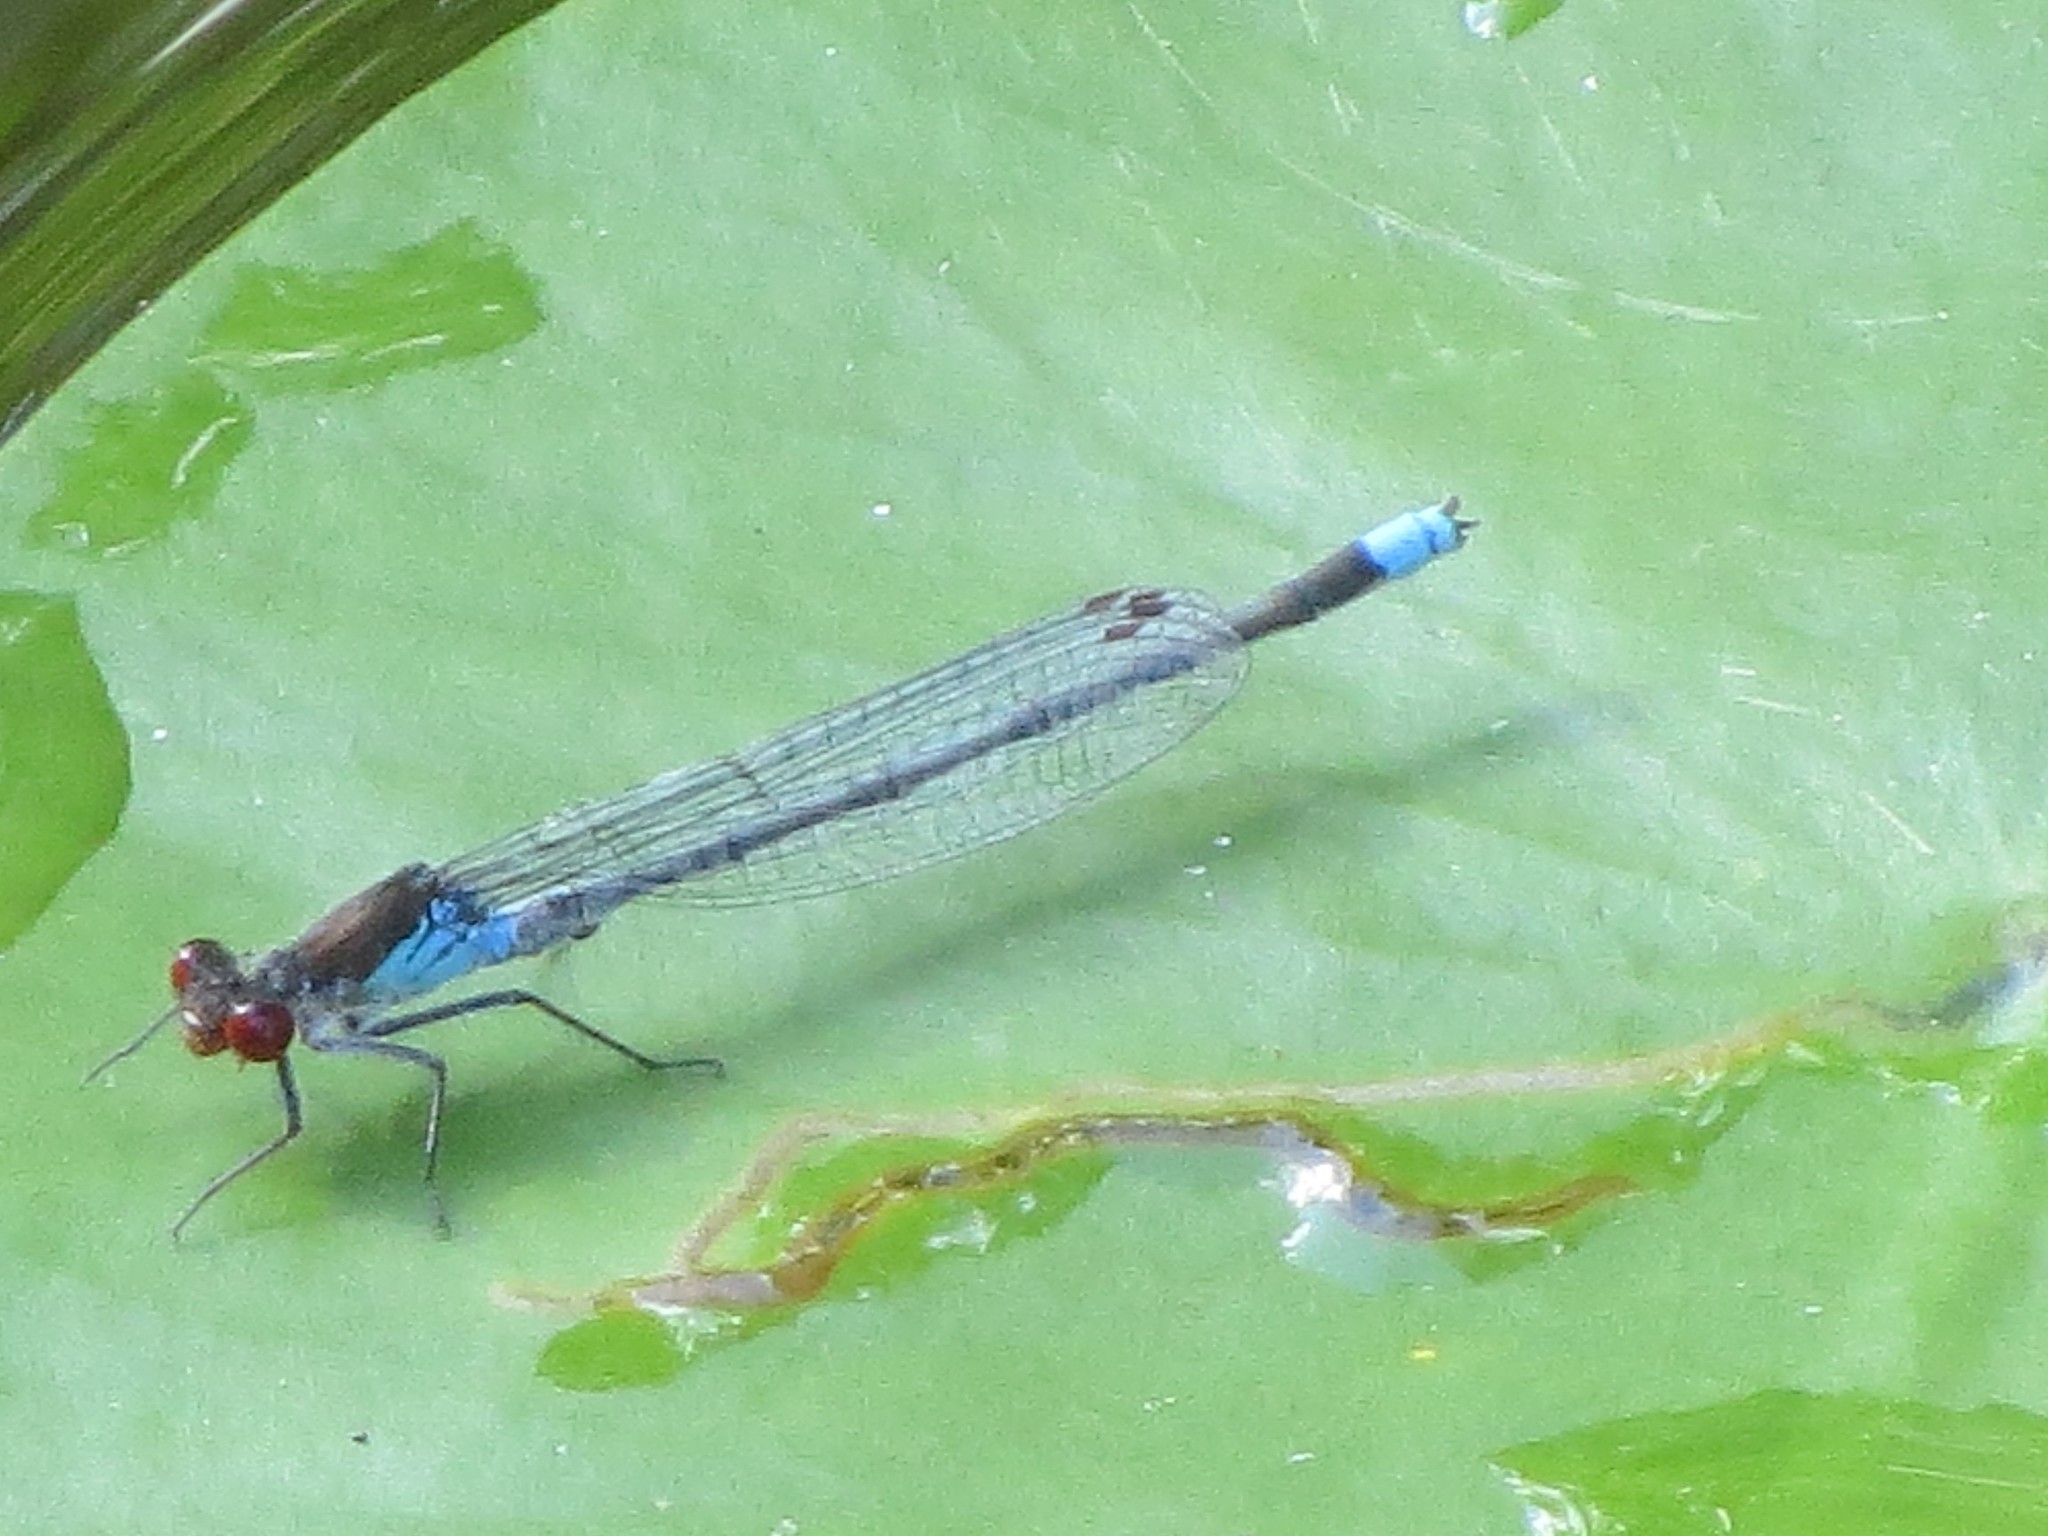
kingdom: Animalia
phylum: Arthropoda
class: Insecta
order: Odonata
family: Coenagrionidae
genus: Erythromma
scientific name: Erythromma najas
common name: Red-eyed damselfly
